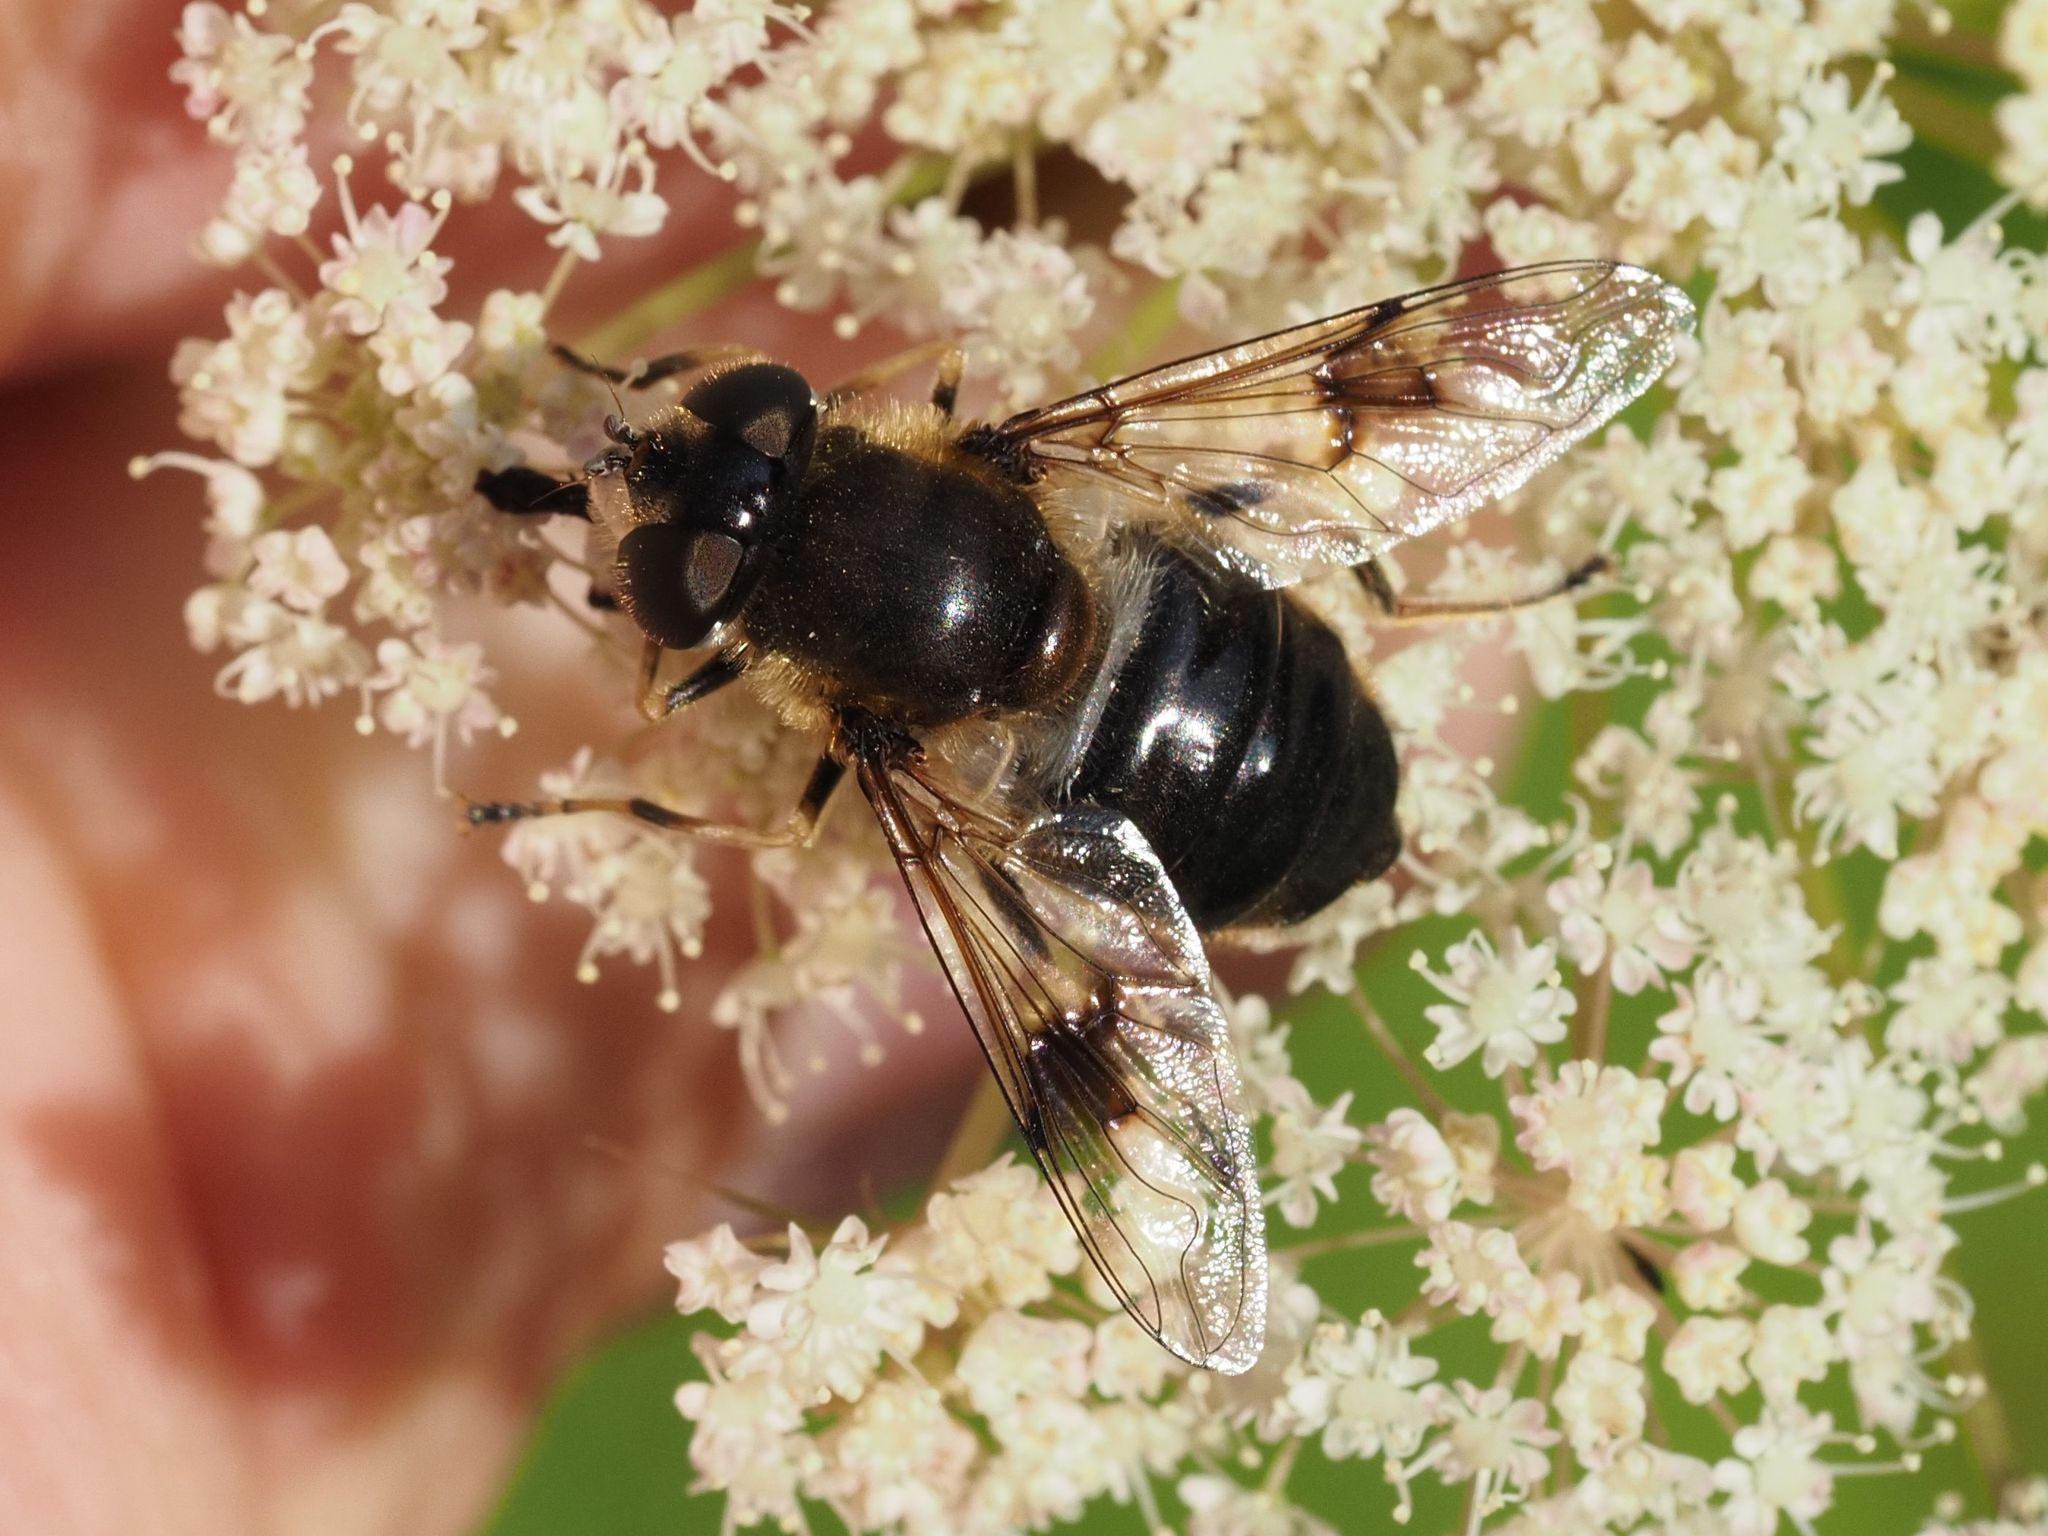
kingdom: Animalia
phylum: Arthropoda
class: Insecta
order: Diptera
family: Syrphidae
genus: Eristalis
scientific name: Eristalis rupium
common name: Hover fly
